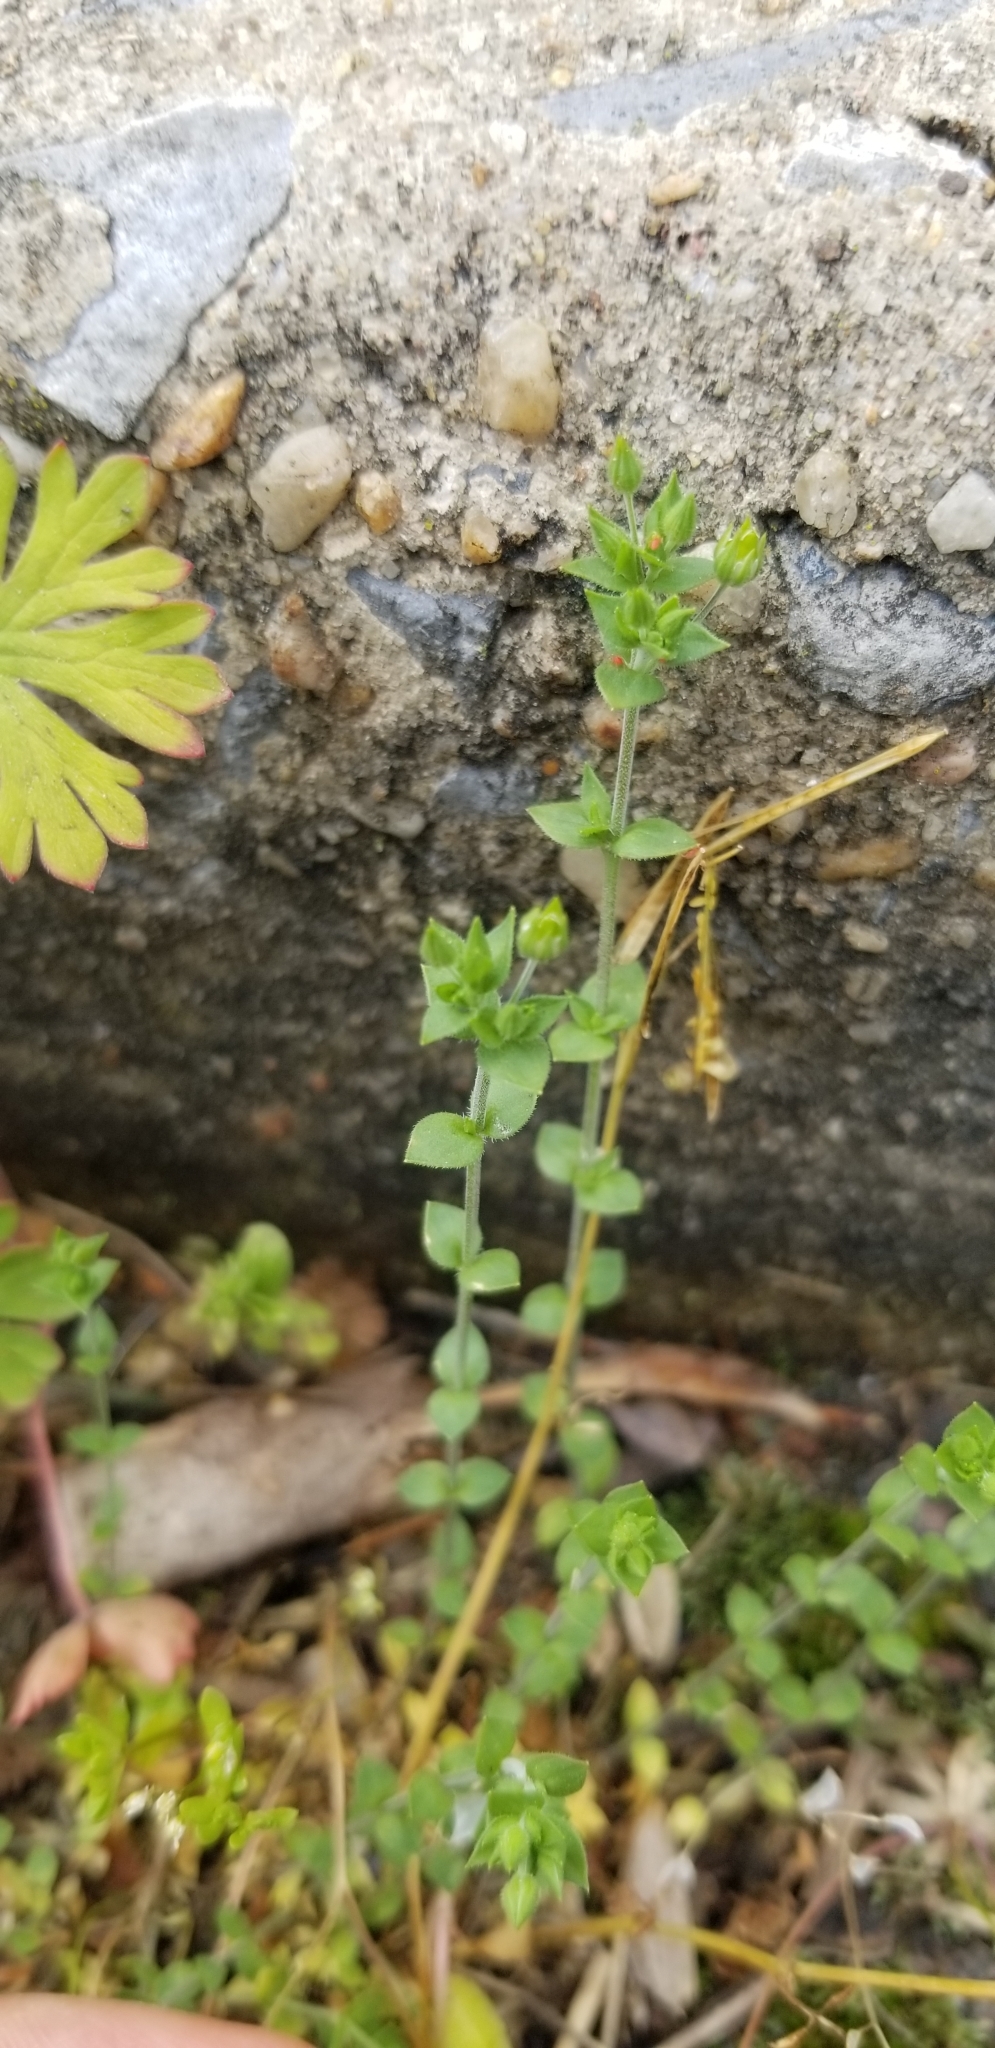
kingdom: Plantae
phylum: Tracheophyta
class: Magnoliopsida
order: Caryophyllales
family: Caryophyllaceae
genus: Arenaria
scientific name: Arenaria serpyllifolia
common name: Thyme-leaved sandwort
